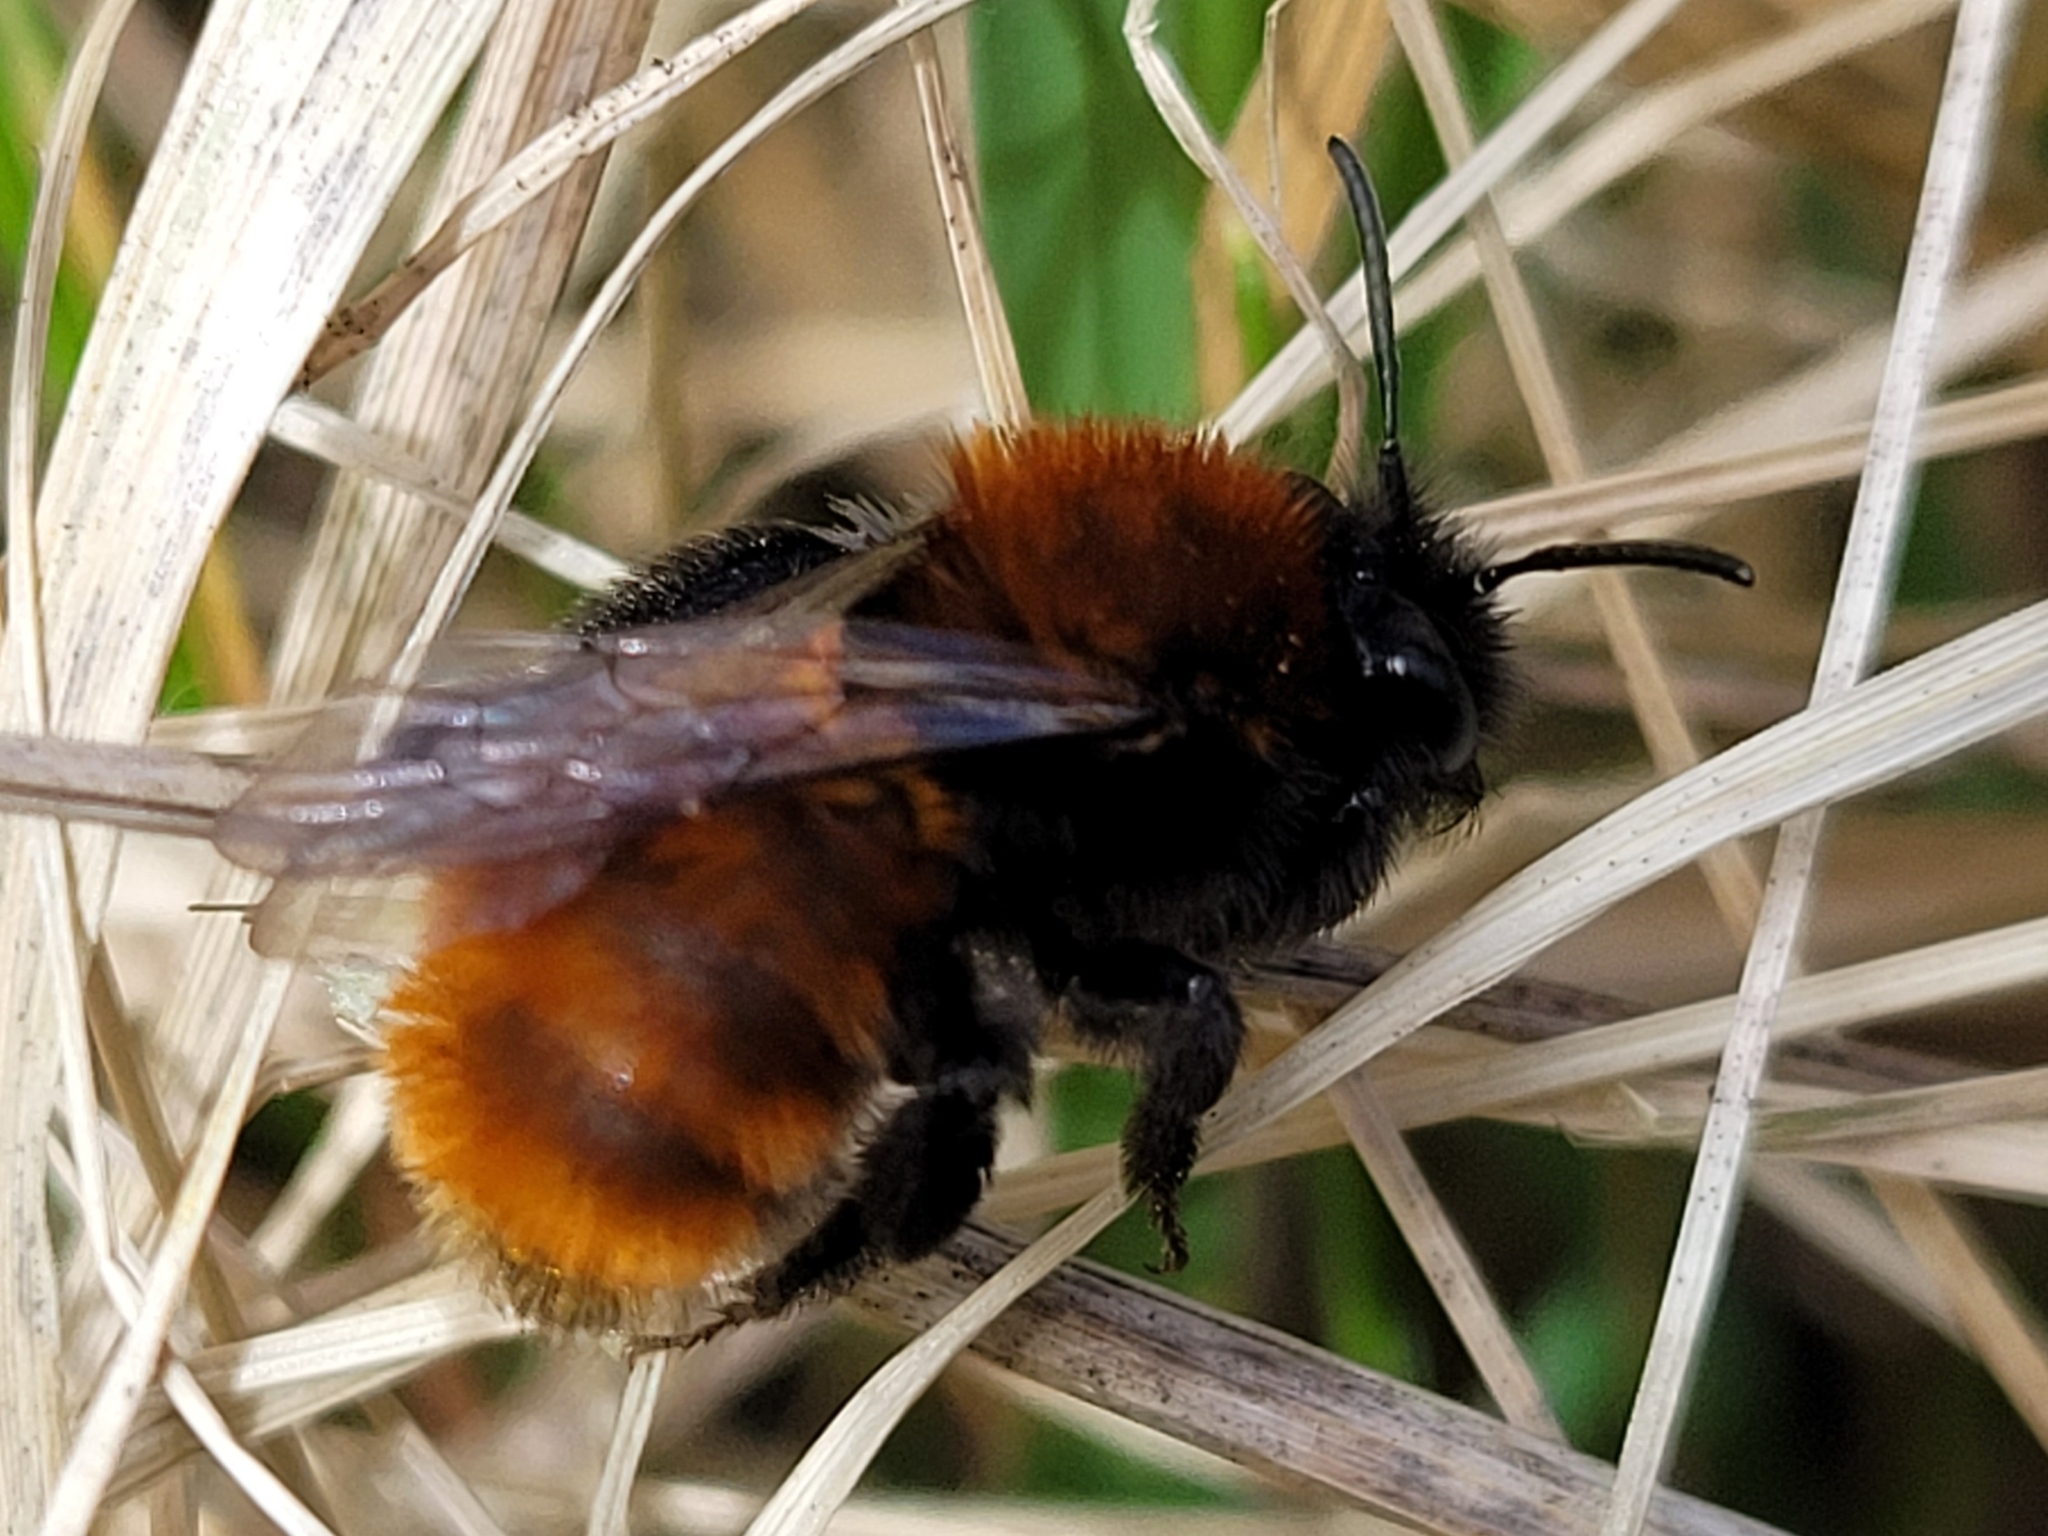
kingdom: Animalia
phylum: Arthropoda
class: Insecta
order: Hymenoptera
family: Andrenidae
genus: Andrena
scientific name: Andrena fulva
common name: Tawny mining bee
